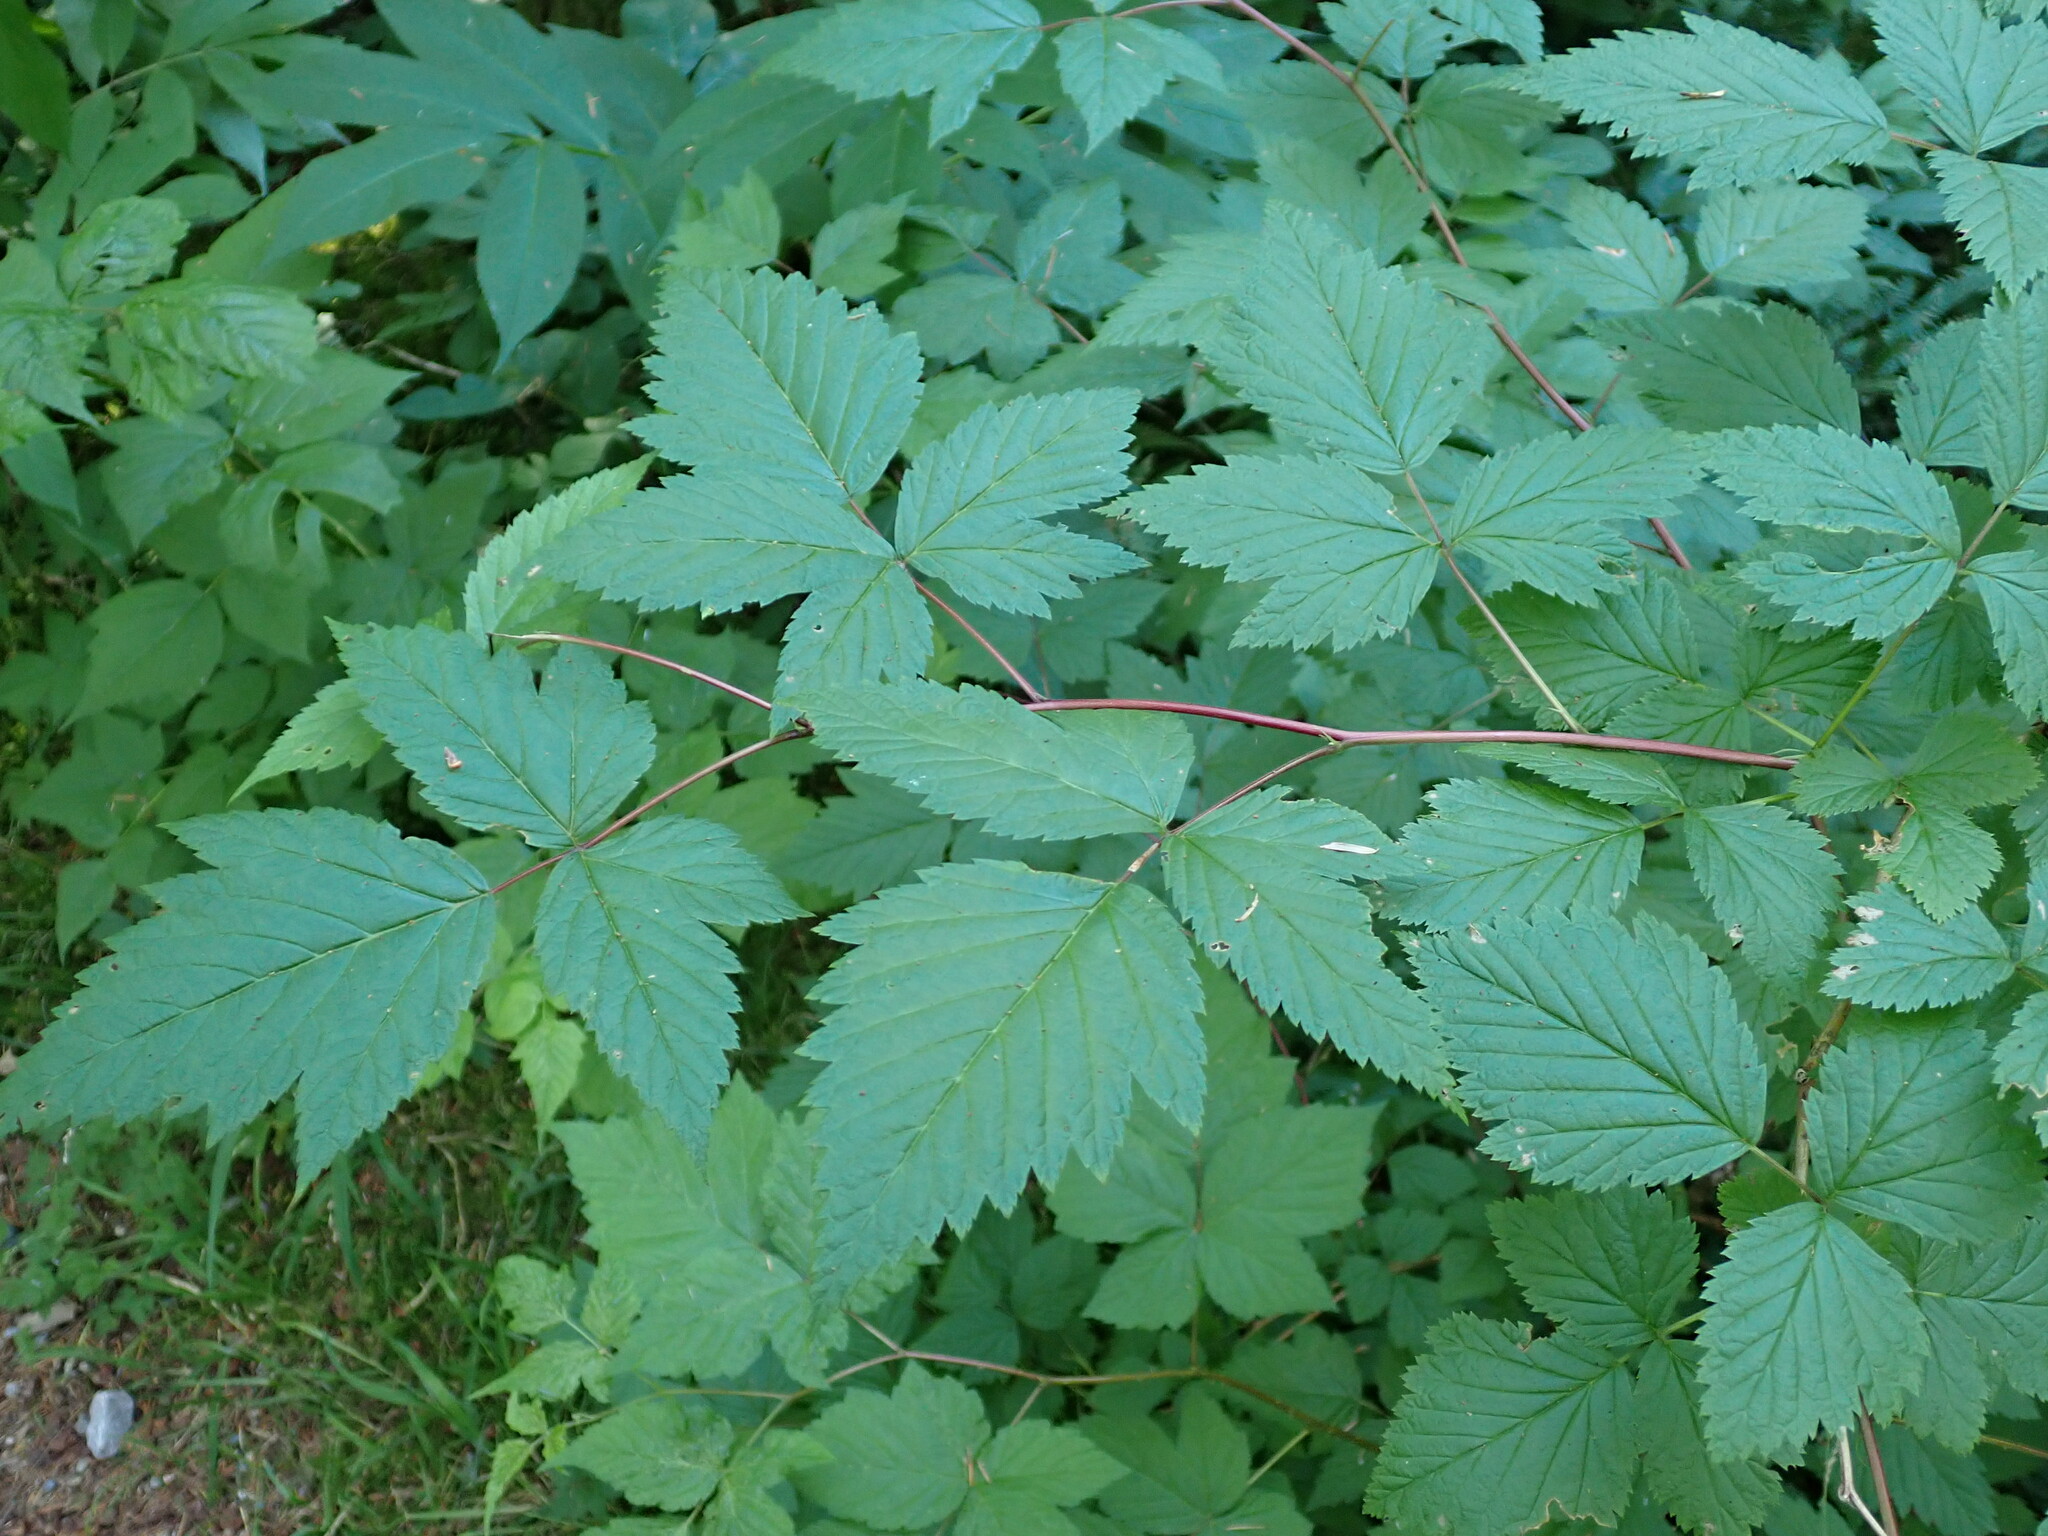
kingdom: Plantae
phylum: Tracheophyta
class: Magnoliopsida
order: Rosales
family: Rosaceae
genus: Rubus
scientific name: Rubus spectabilis
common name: Salmonberry
